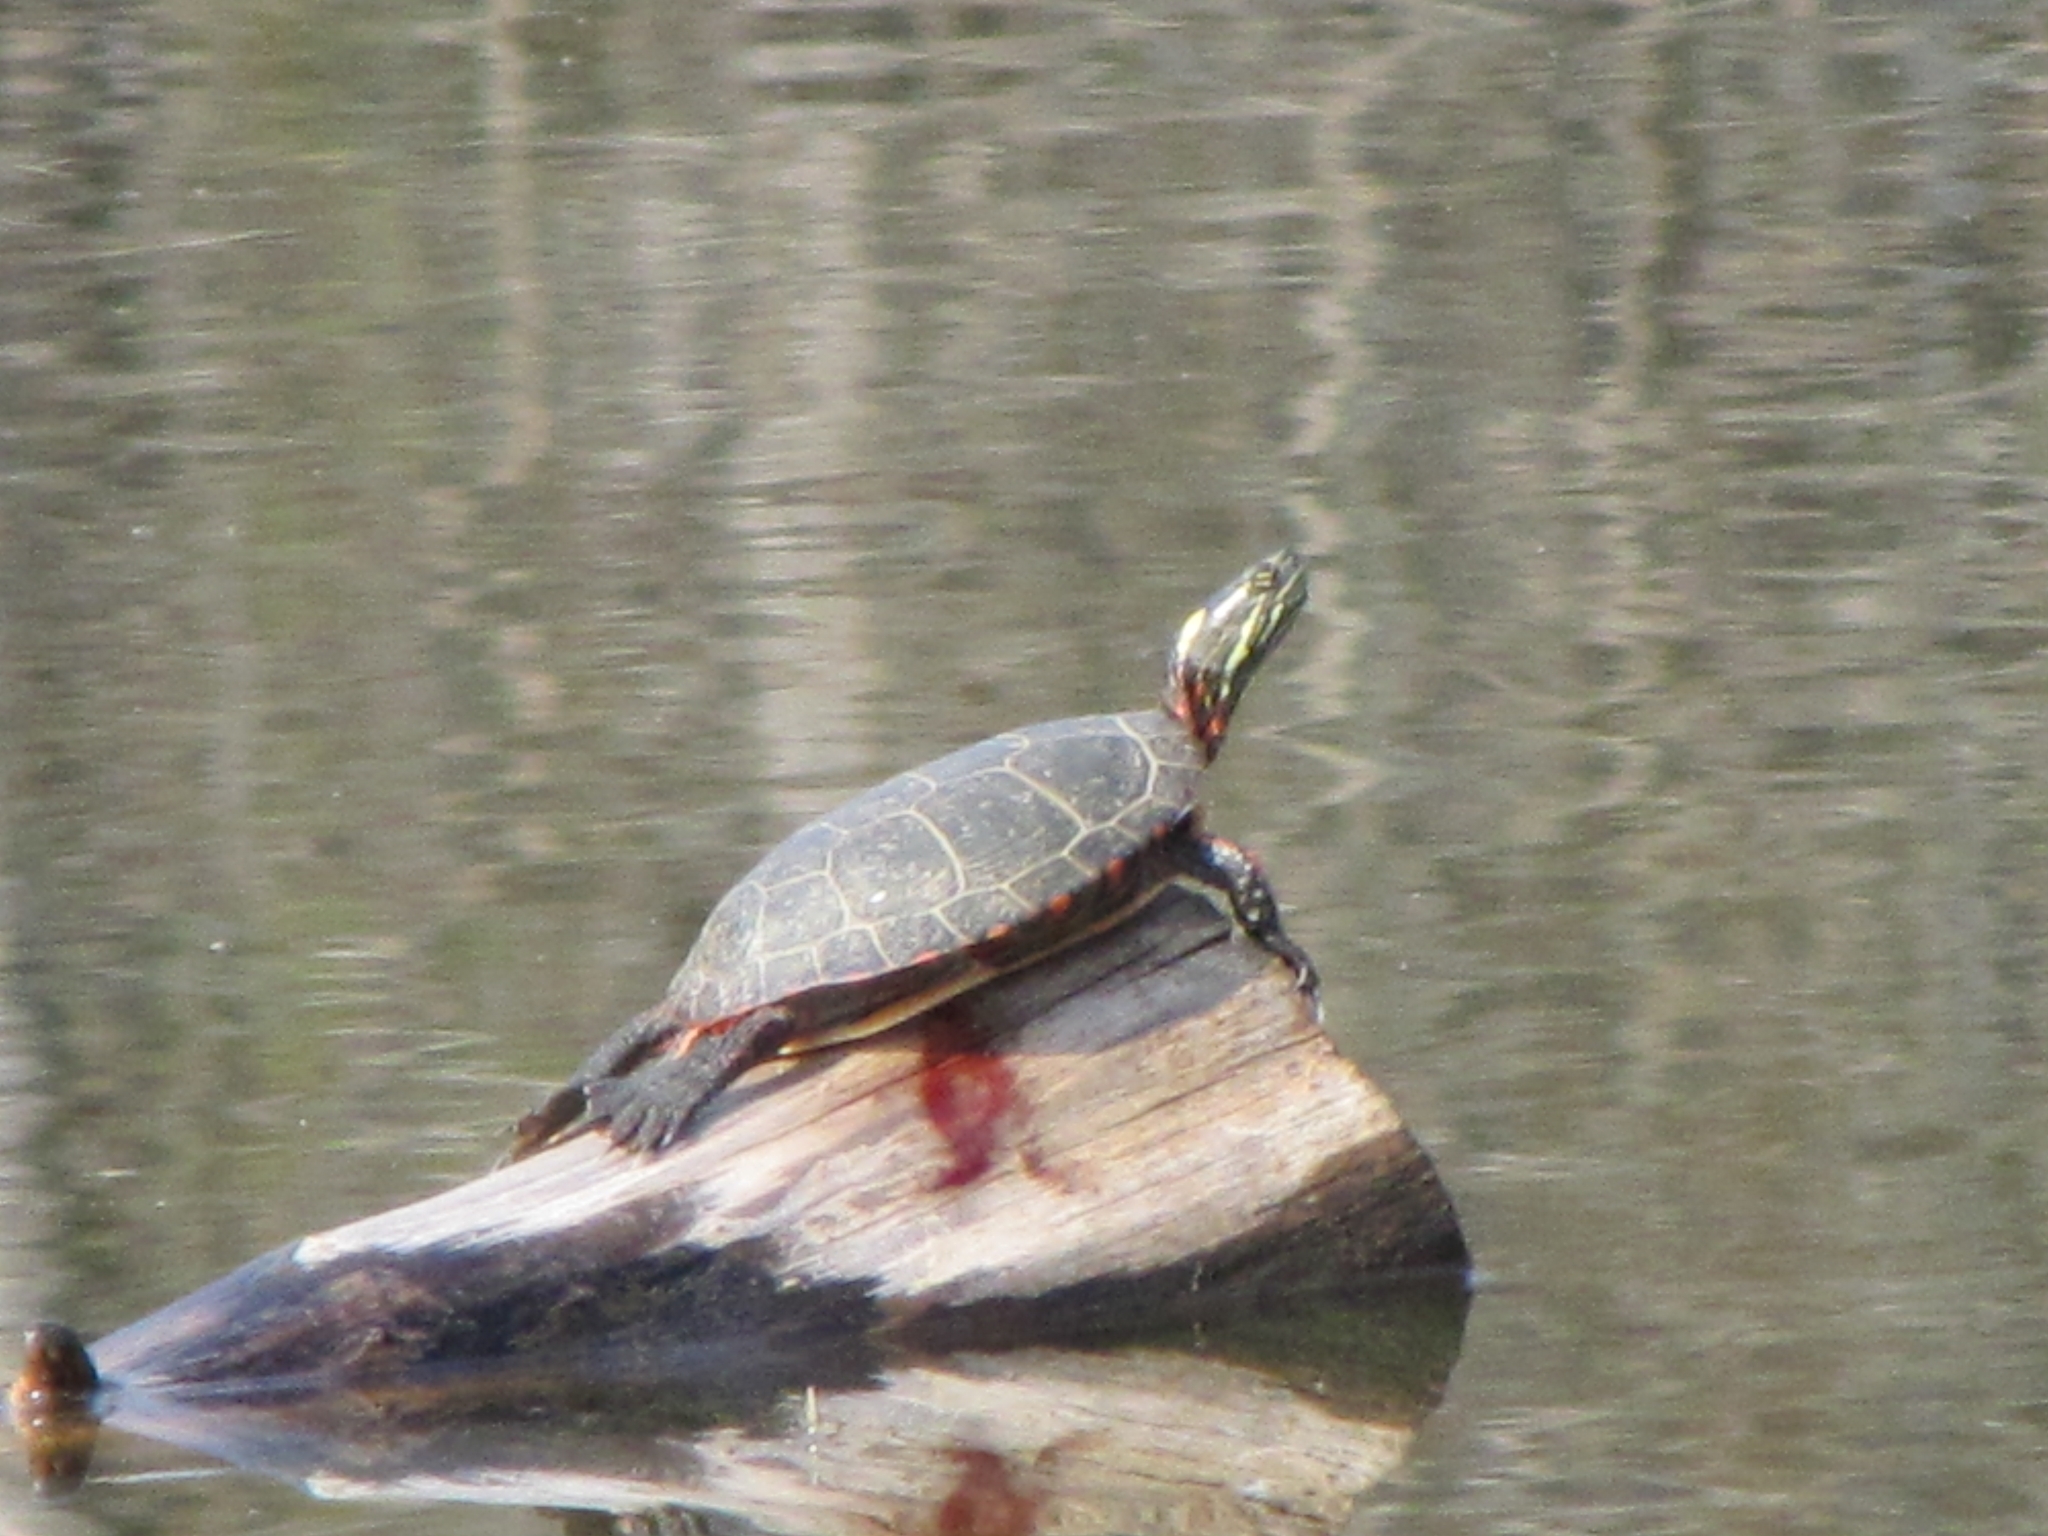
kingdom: Animalia
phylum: Chordata
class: Testudines
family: Emydidae
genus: Chrysemys
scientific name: Chrysemys picta
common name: Painted turtle
